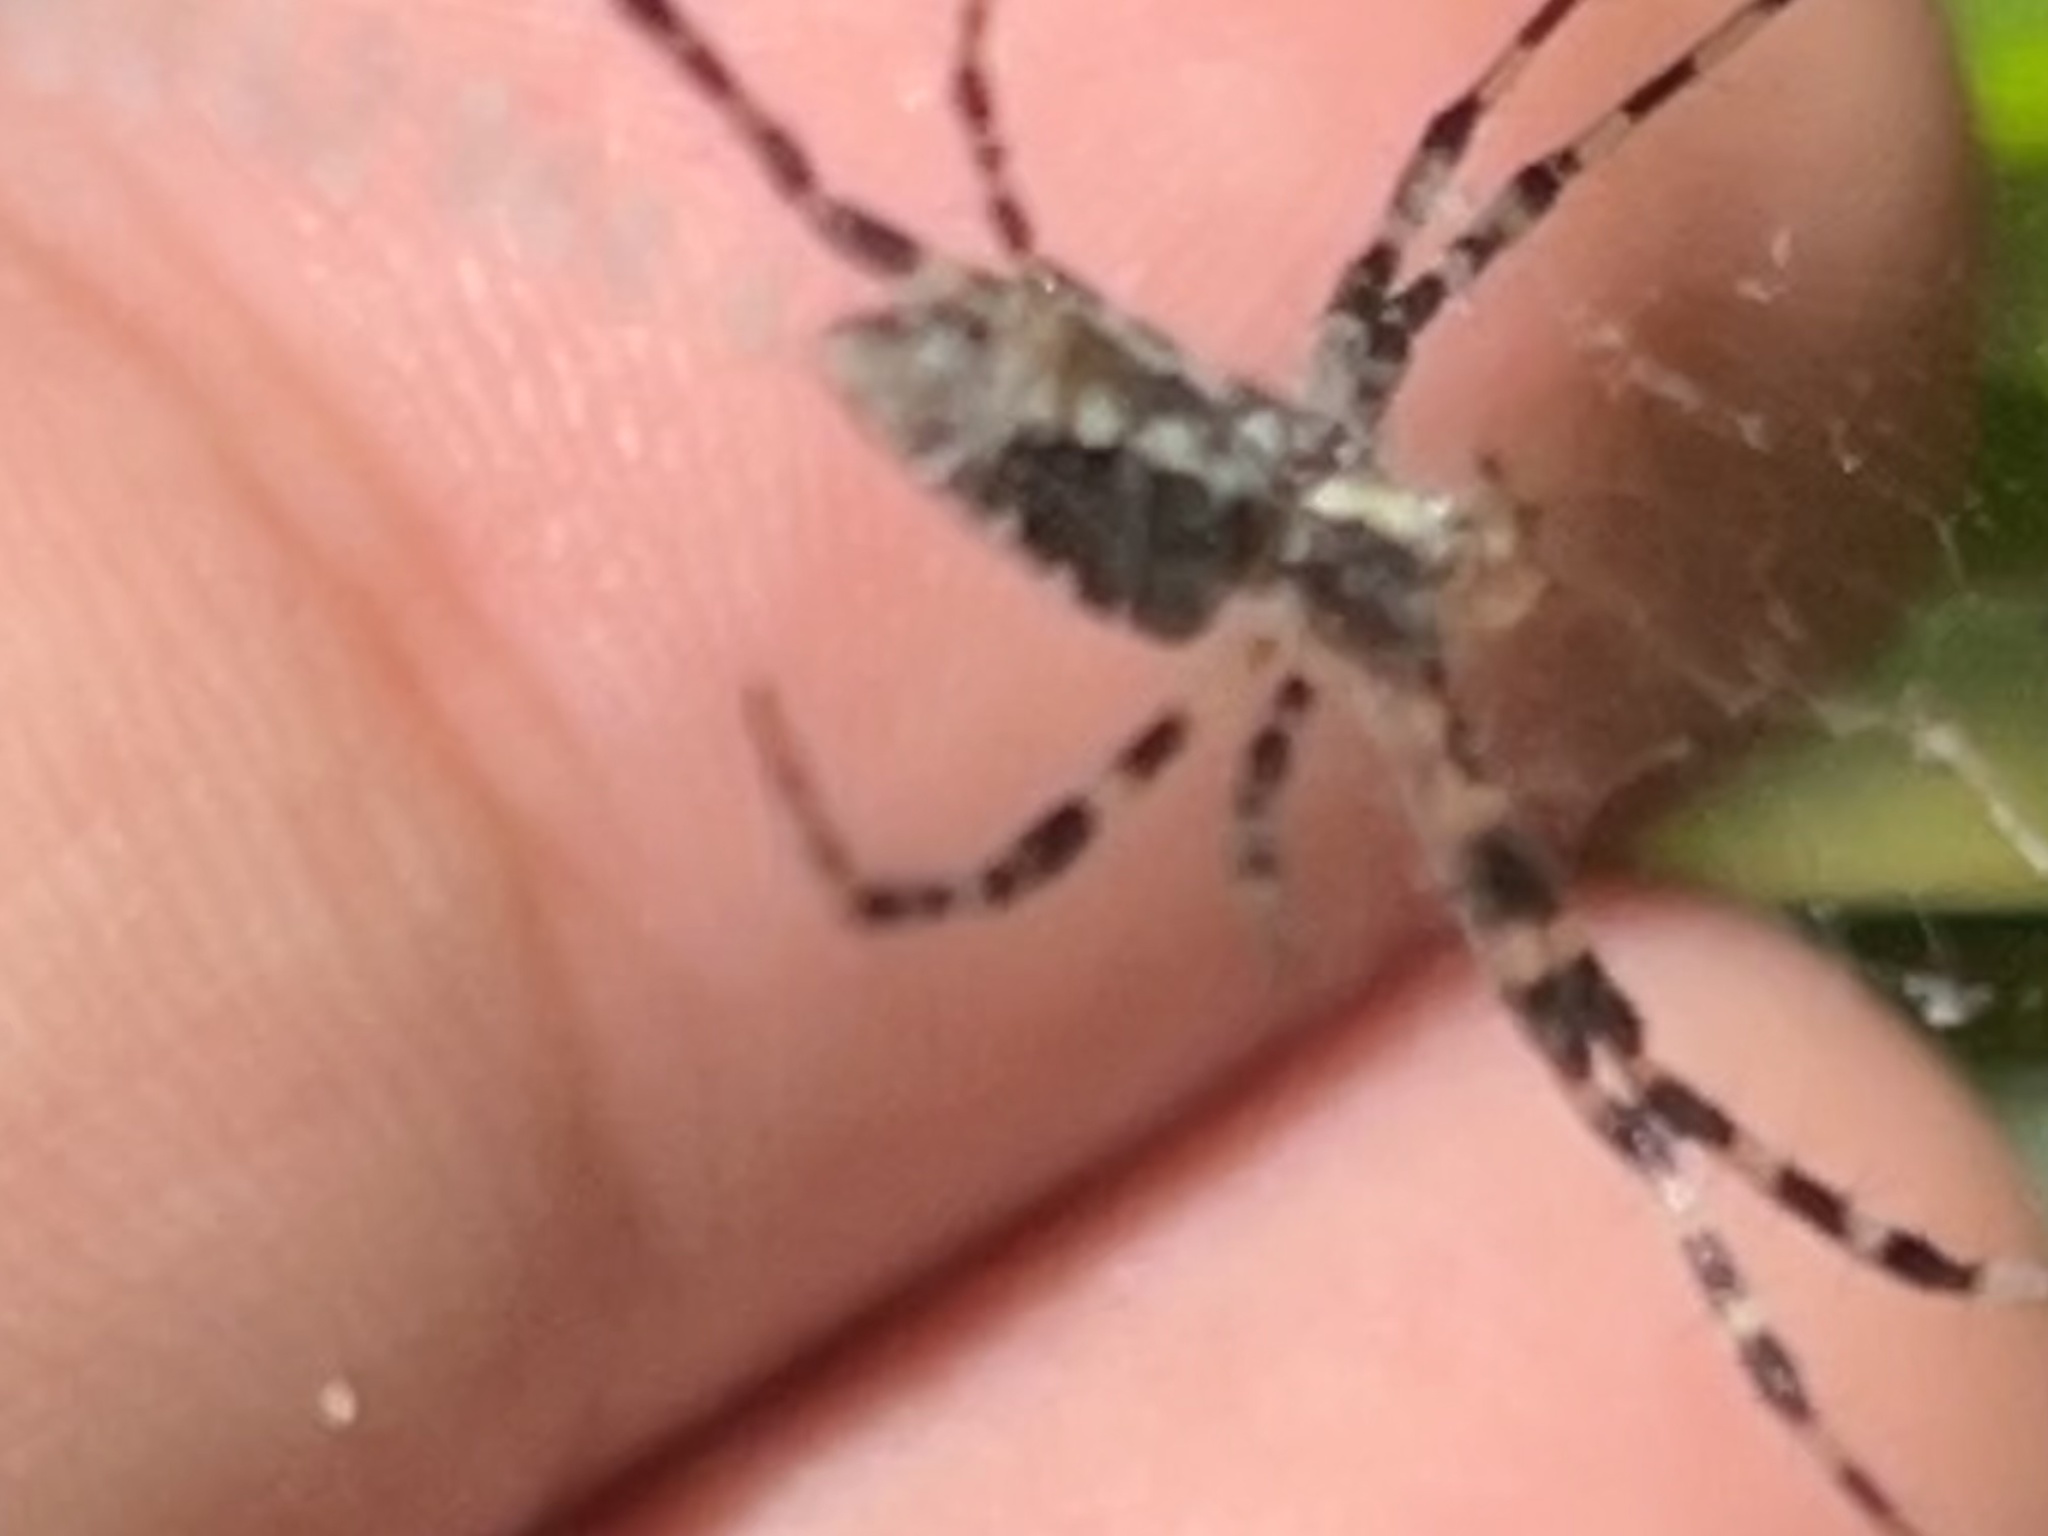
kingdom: Animalia
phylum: Arthropoda
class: Arachnida
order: Araneae
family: Araneidae
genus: Argiope
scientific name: Argiope aurantia
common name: Orb weavers
